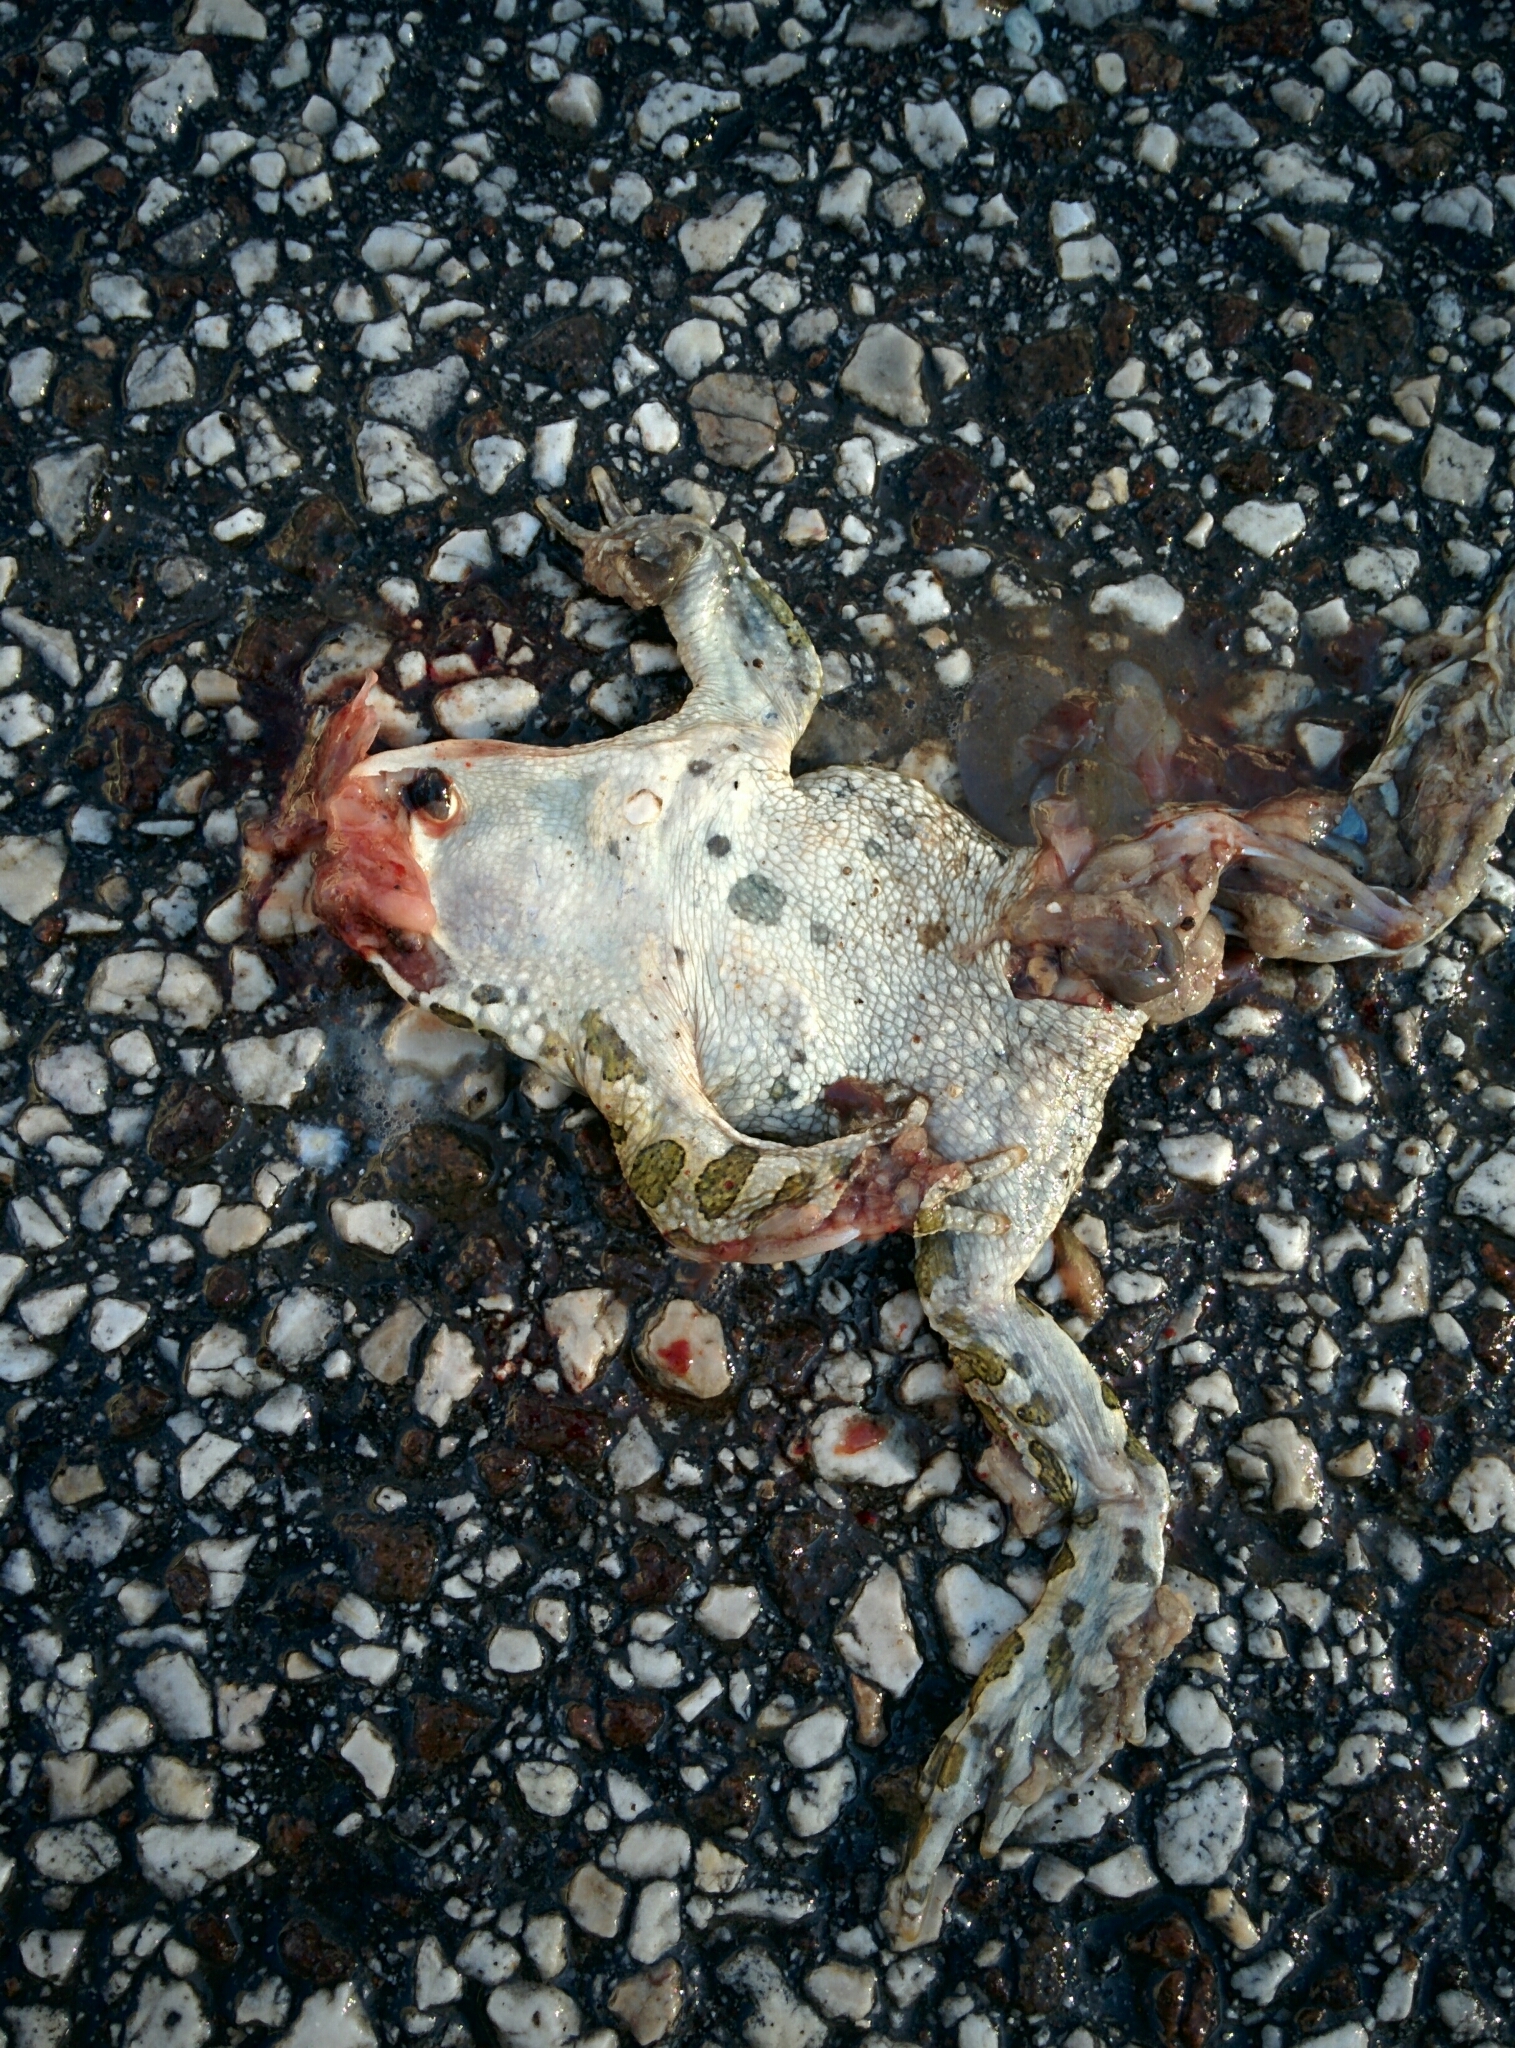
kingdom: Animalia
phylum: Chordata
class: Amphibia
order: Anura
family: Bufonidae
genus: Bufotes
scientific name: Bufotes viridis
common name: European green toad
